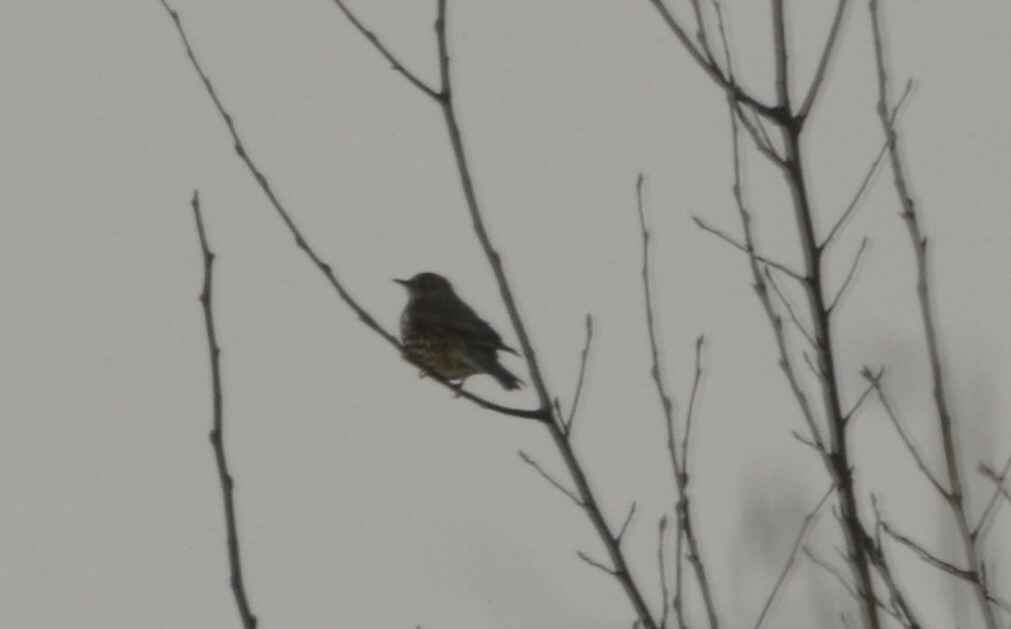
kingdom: Animalia
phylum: Chordata
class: Aves
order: Passeriformes
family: Turdidae
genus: Turdus
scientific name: Turdus viscivorus
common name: Mistle thrush
